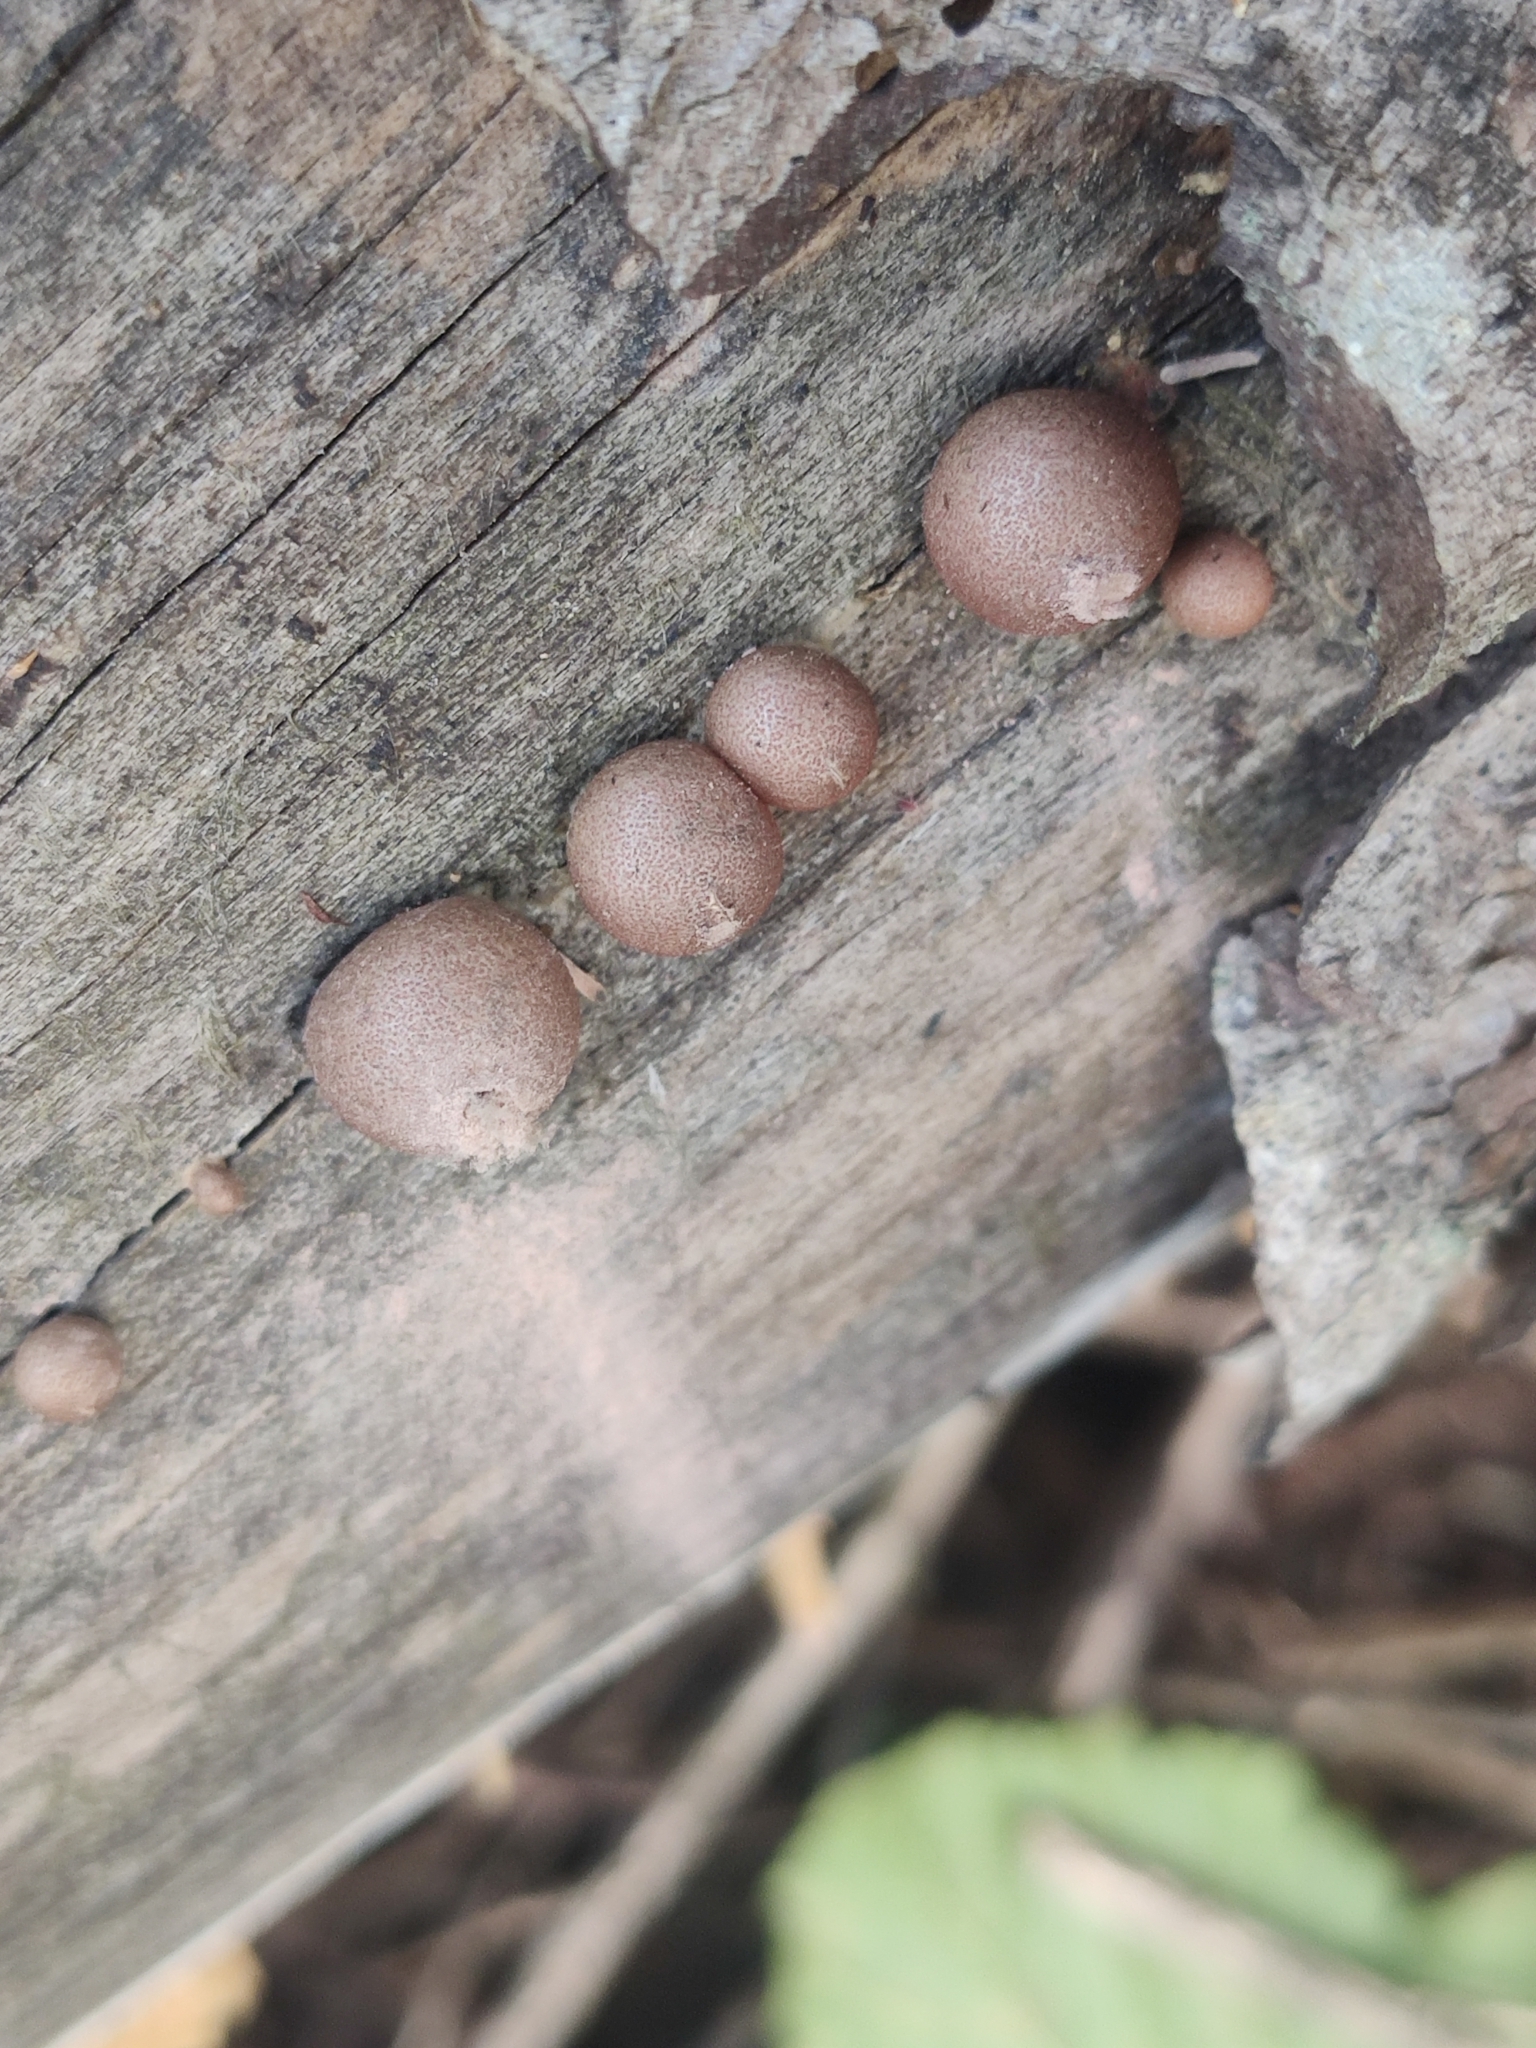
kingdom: Protozoa
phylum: Mycetozoa
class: Myxomycetes
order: Cribrariales
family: Tubiferaceae
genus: Lycogala
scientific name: Lycogala epidendrum
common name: Wolf's milk
